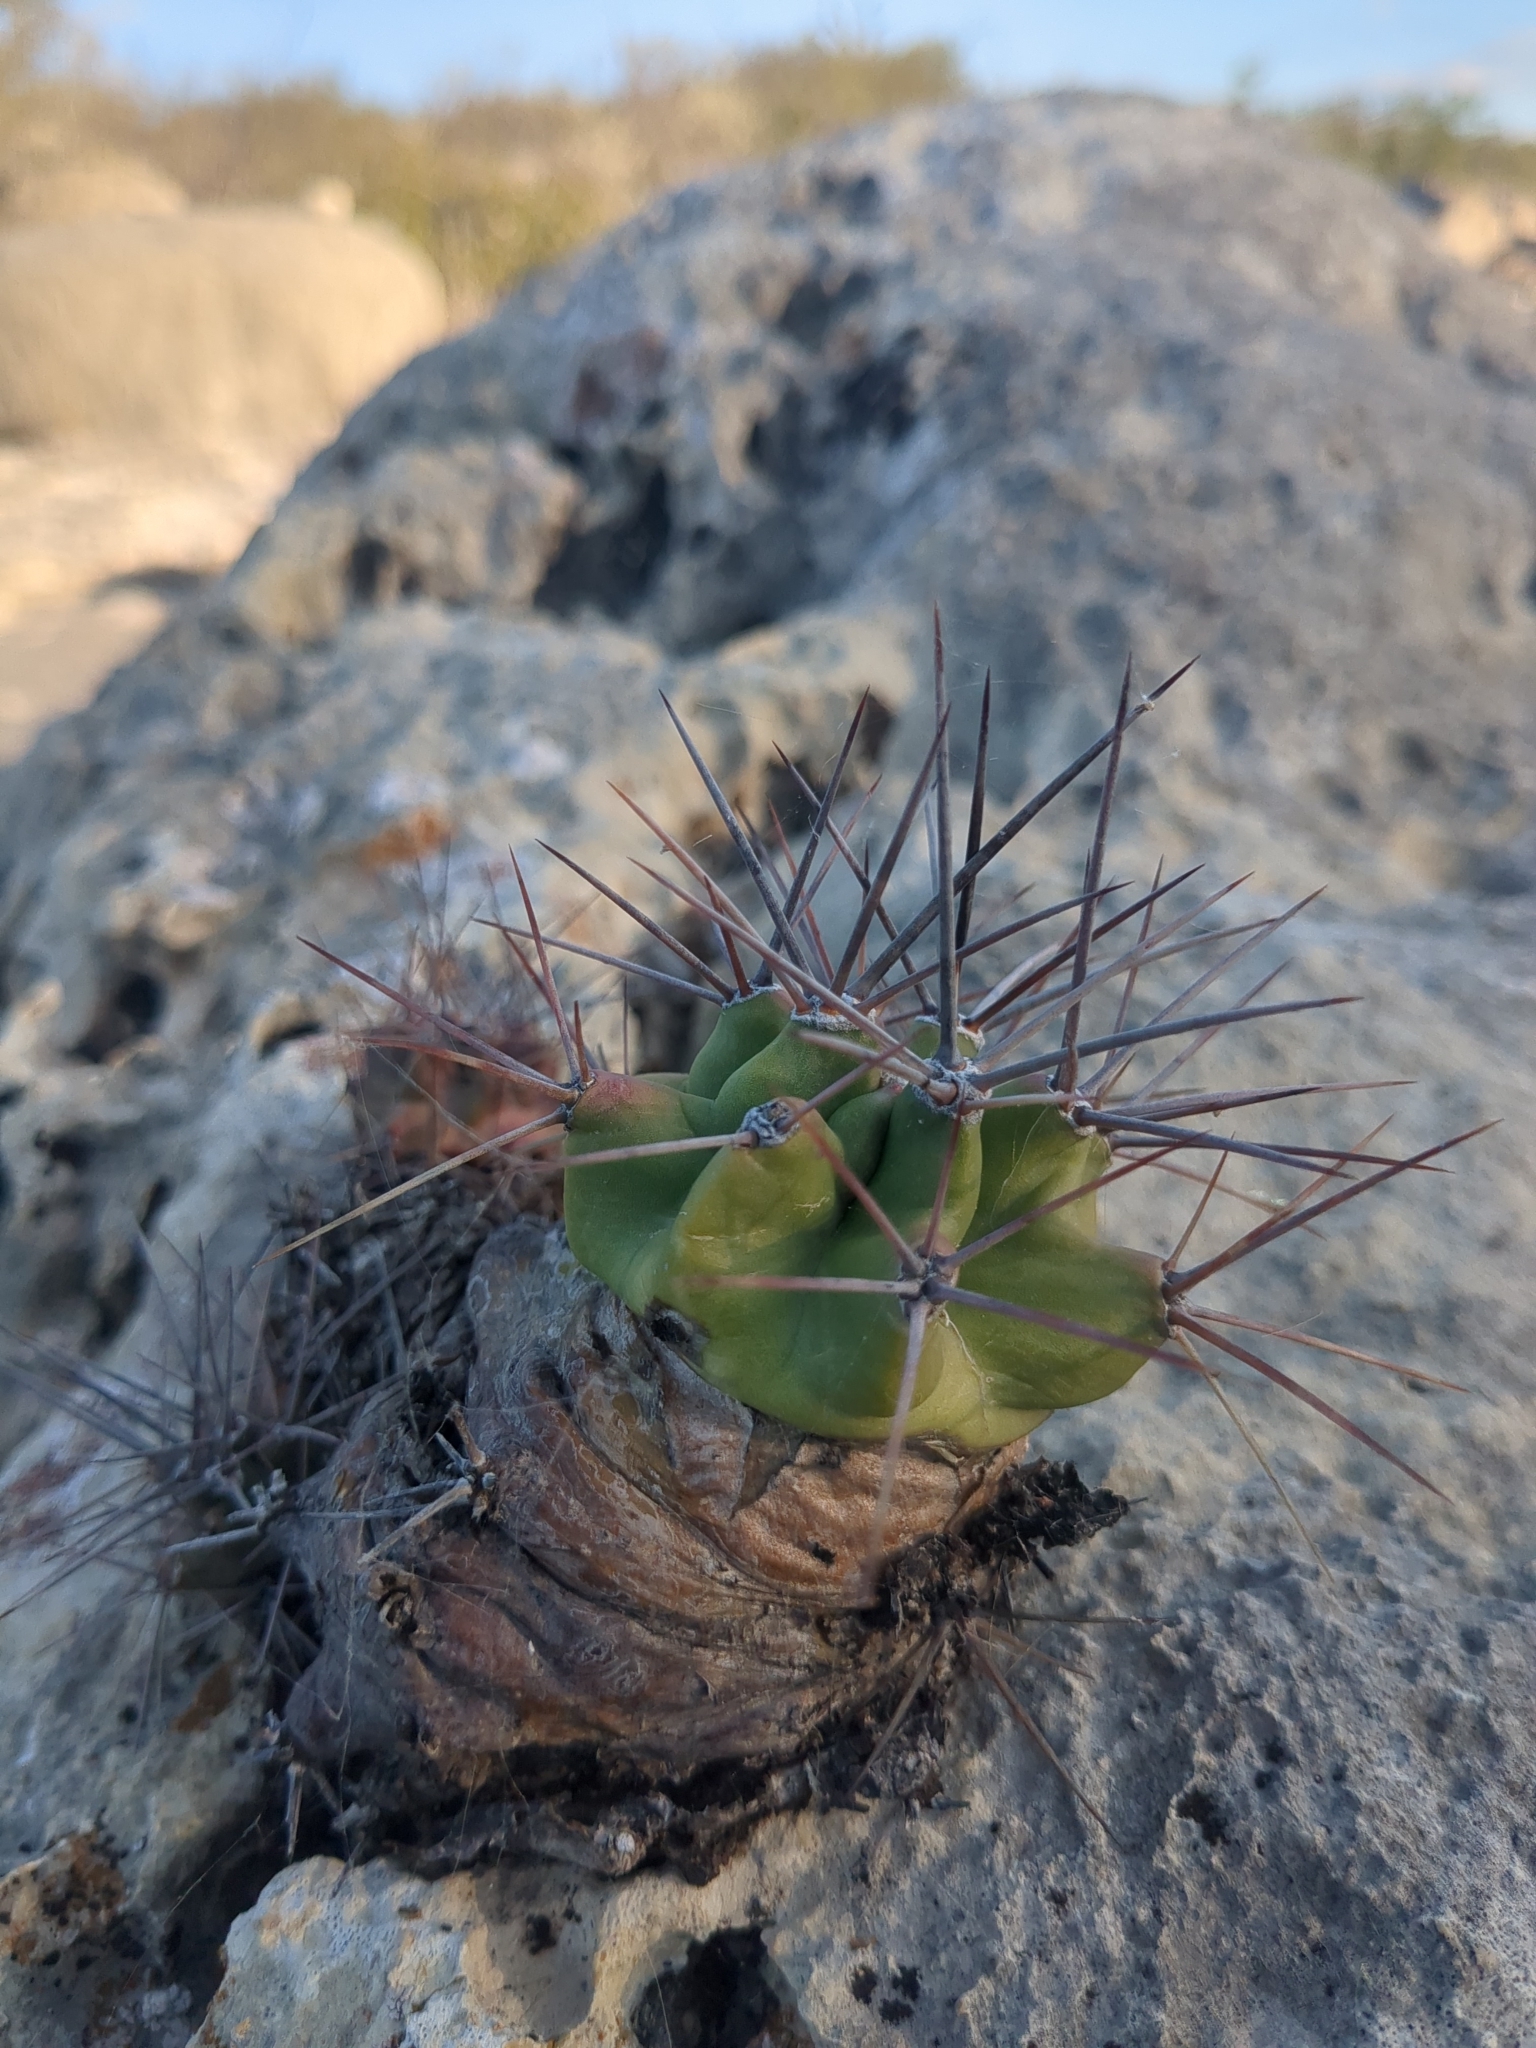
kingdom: Plantae
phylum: Tracheophyta
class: Magnoliopsida
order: Caryophyllales
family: Cactaceae
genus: Echinocereus
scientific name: Echinocereus coccineus
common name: Scarlet hedgehog cactus
